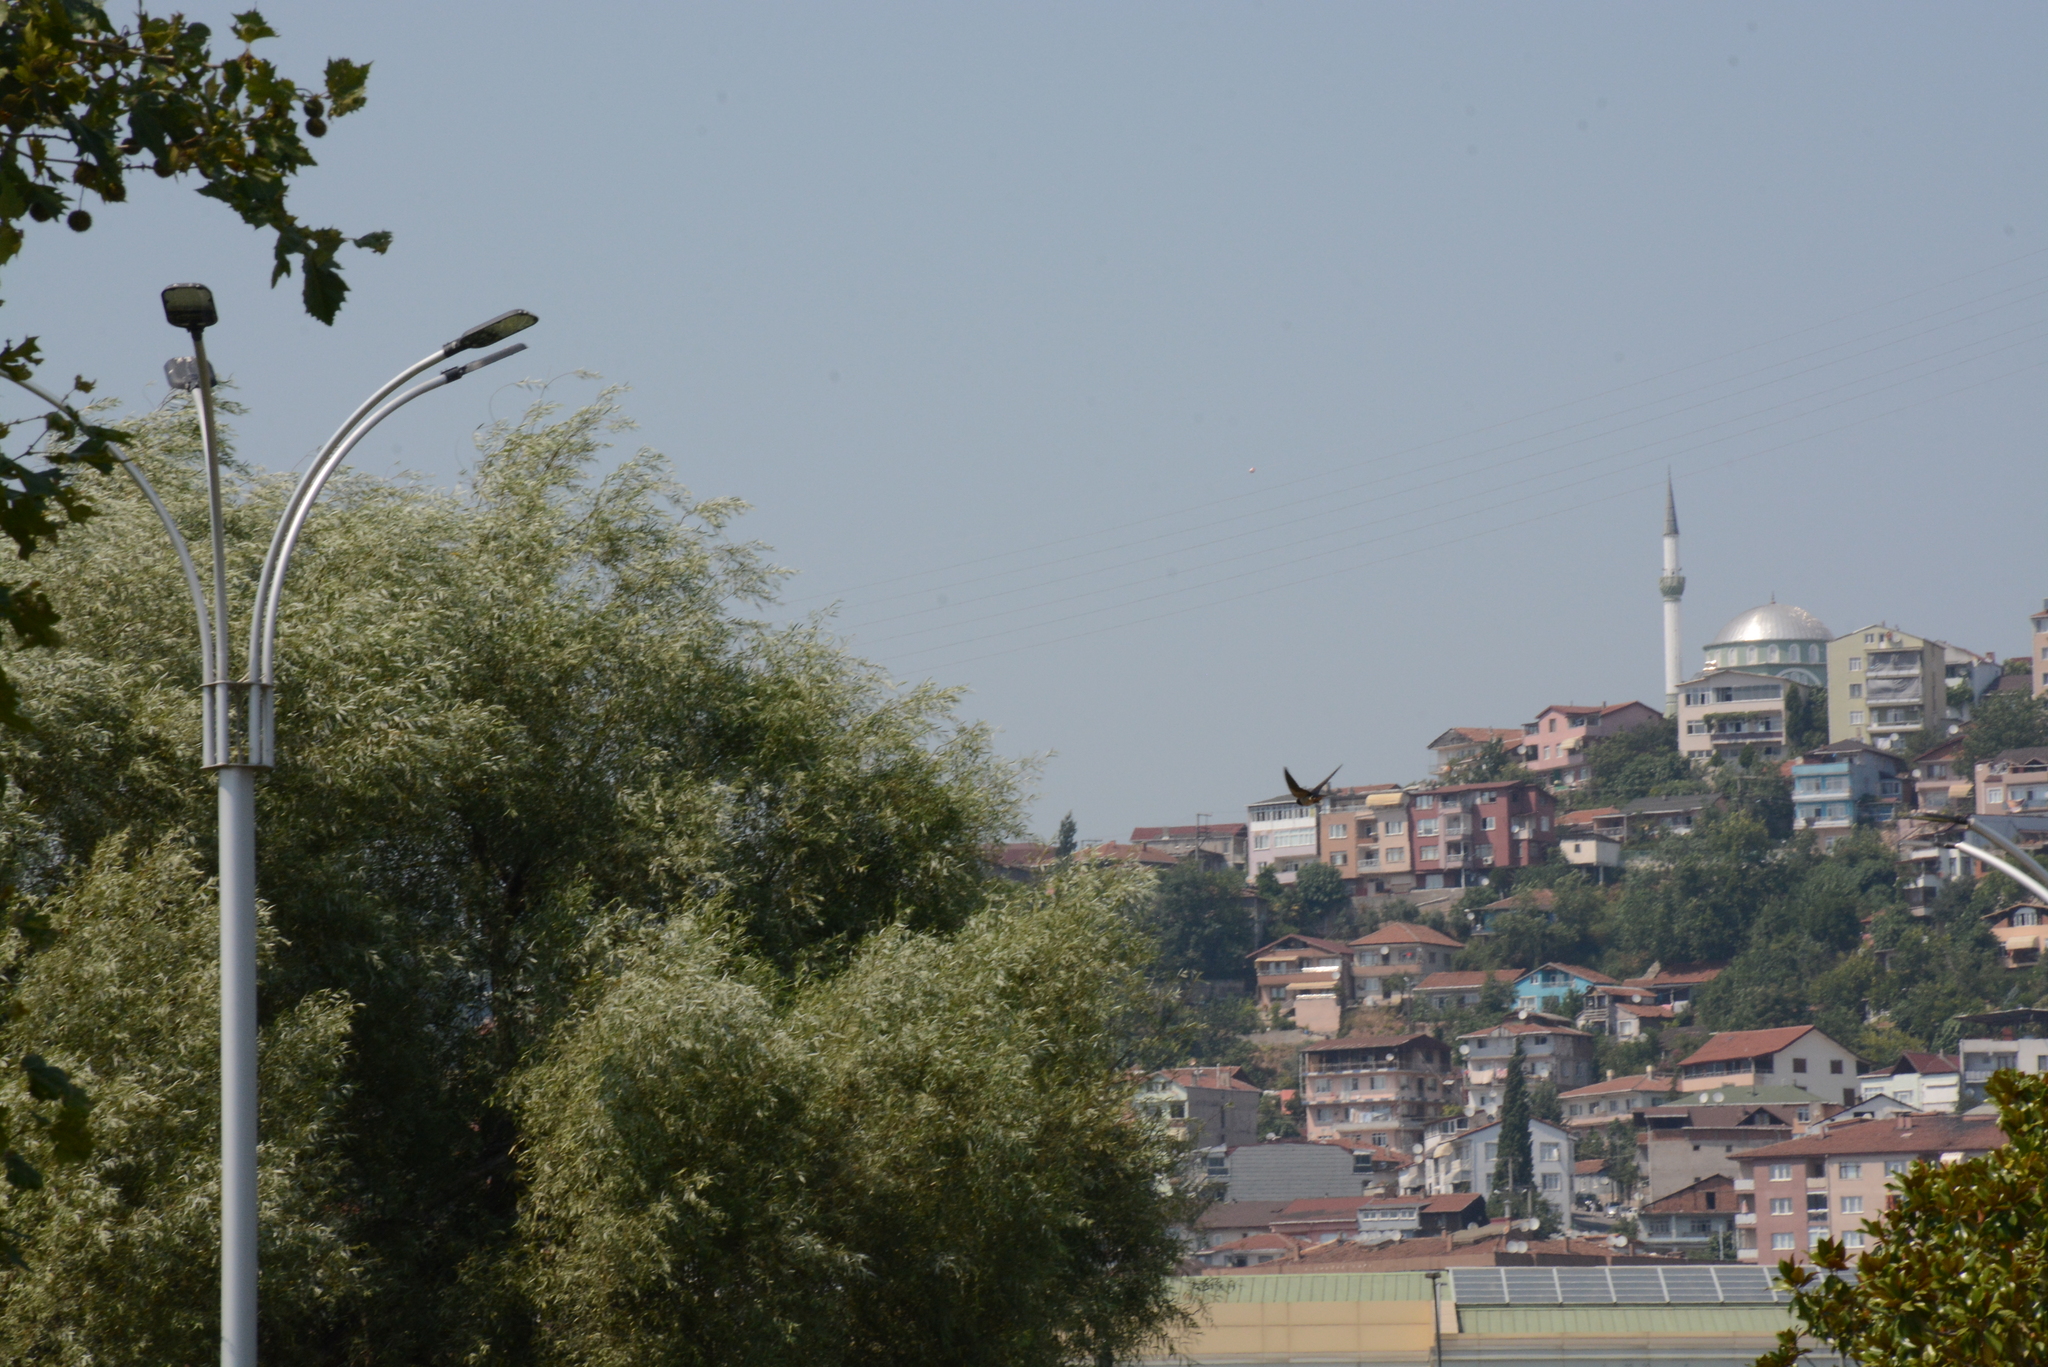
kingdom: Animalia
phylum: Chordata
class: Aves
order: Passeriformes
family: Hirundinidae
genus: Hirundo
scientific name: Hirundo rustica
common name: Barn swallow
